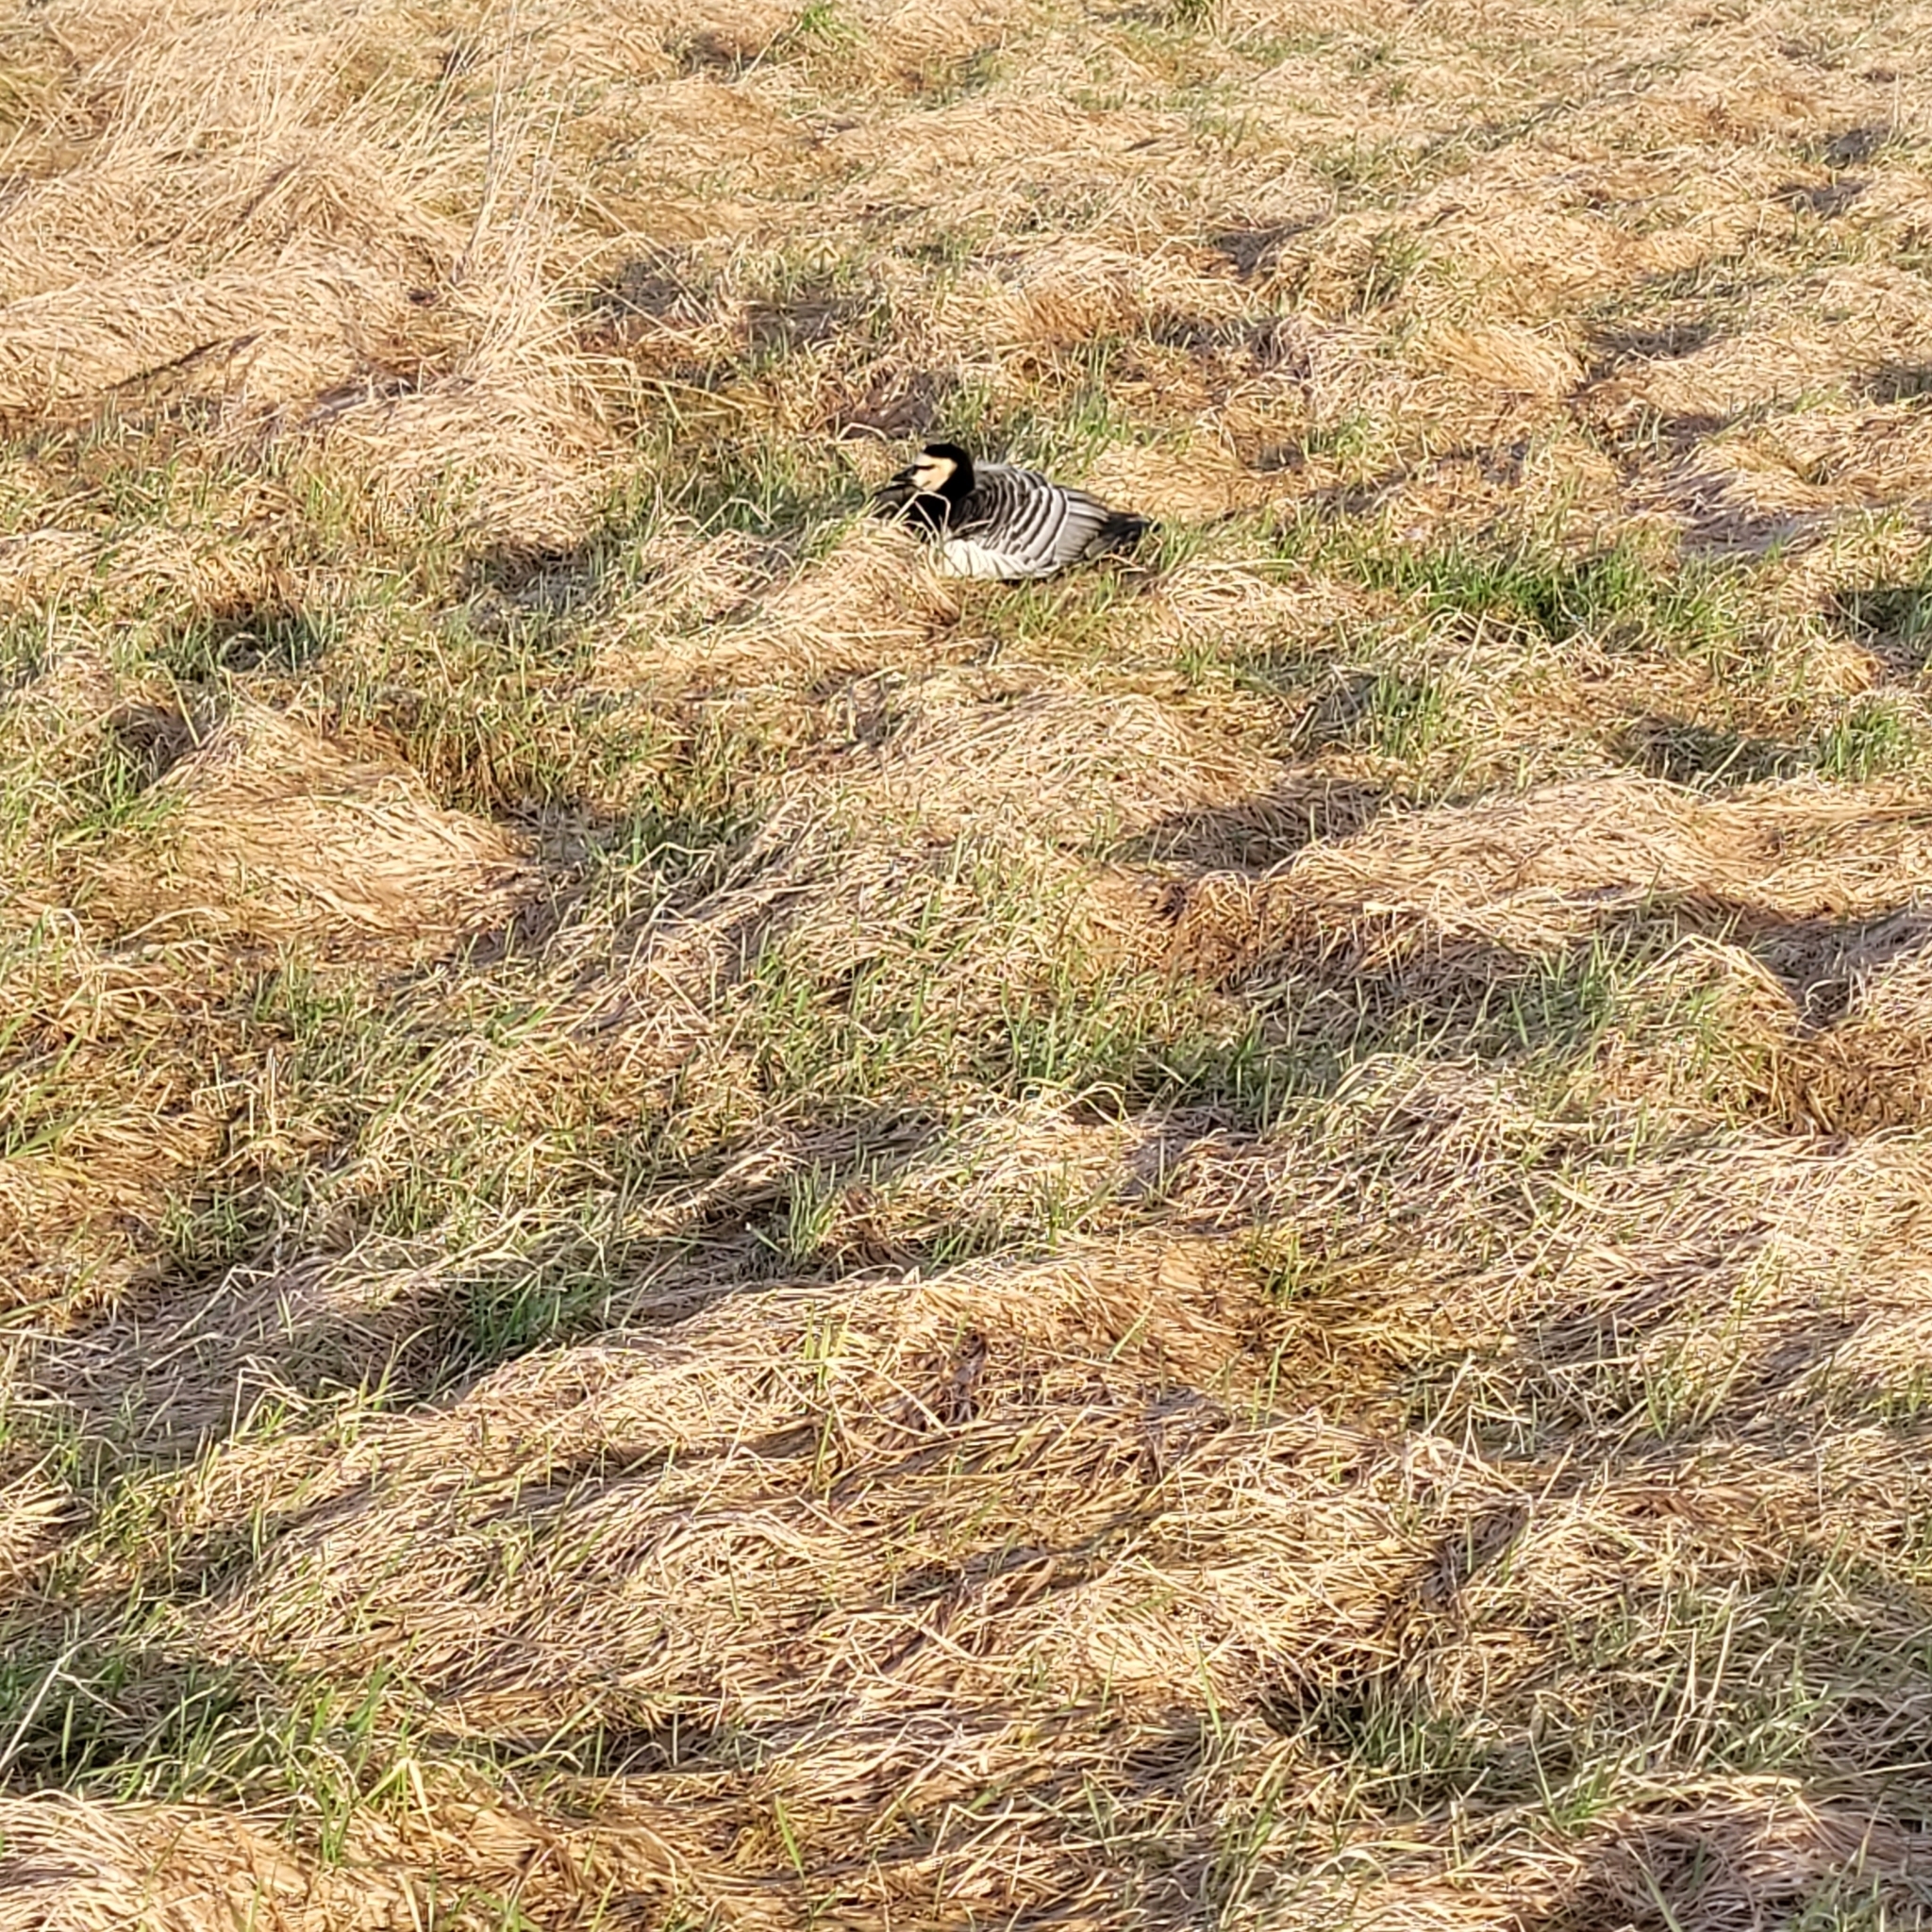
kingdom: Animalia
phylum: Chordata
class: Aves
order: Anseriformes
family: Anatidae
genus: Branta
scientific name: Branta leucopsis
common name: Barnacle goose
